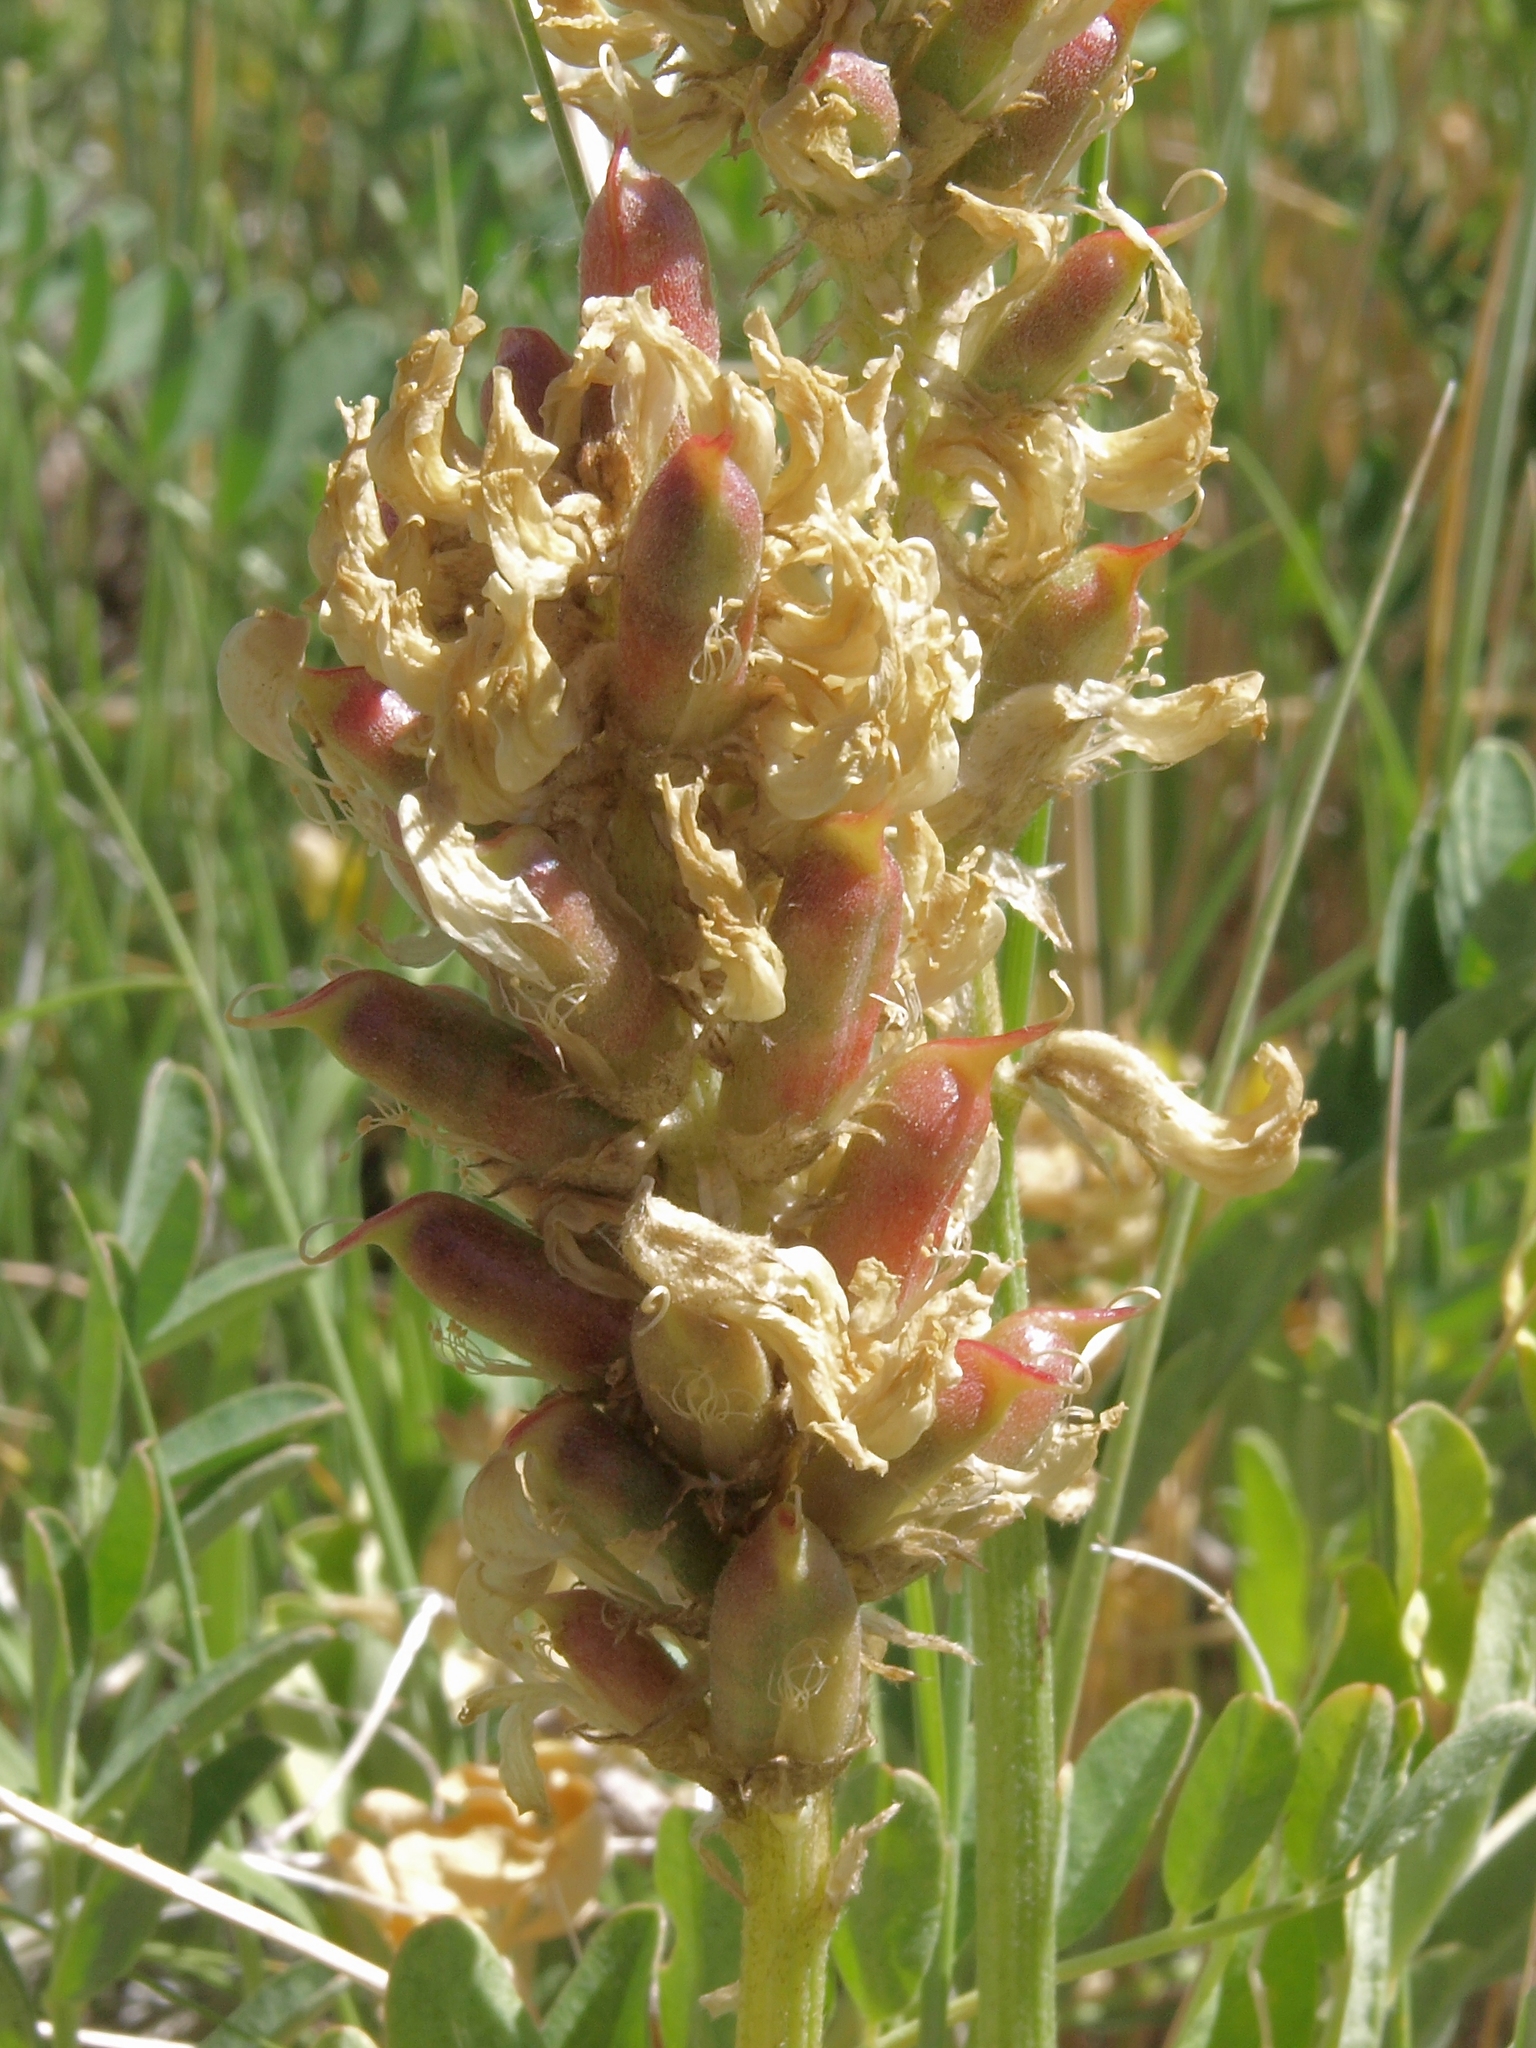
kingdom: Plantae
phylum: Tracheophyta
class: Magnoliopsida
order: Fabales
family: Fabaceae
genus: Astragalus
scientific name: Astragalus canadensis
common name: Canada milk-vetch
